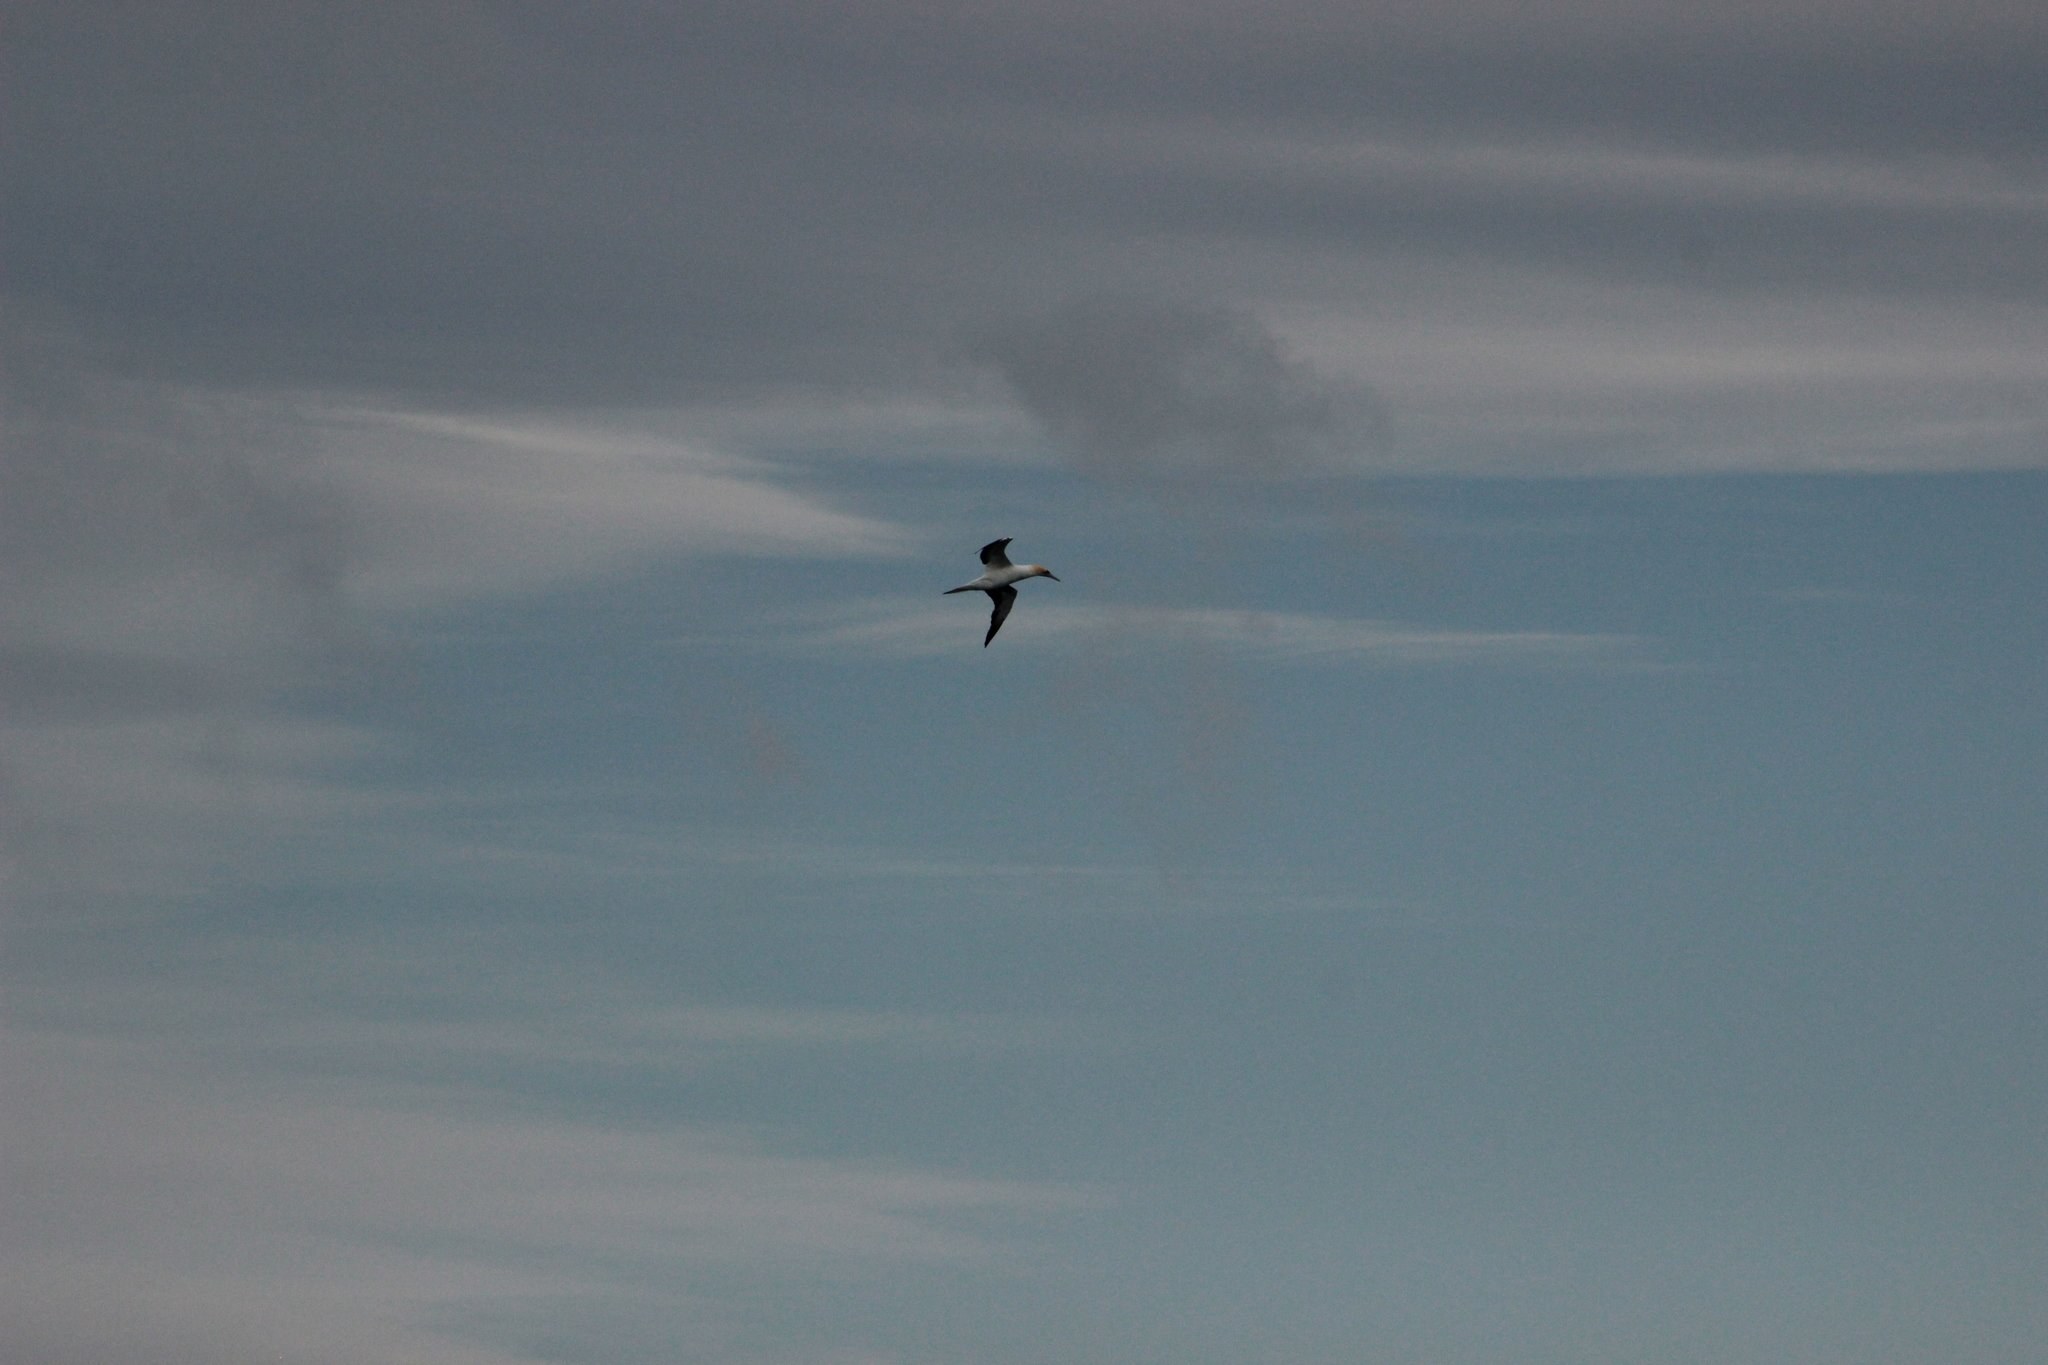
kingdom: Animalia
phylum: Chordata
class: Aves
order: Suliformes
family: Sulidae
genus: Morus
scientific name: Morus serrator
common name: Australasian gannet
